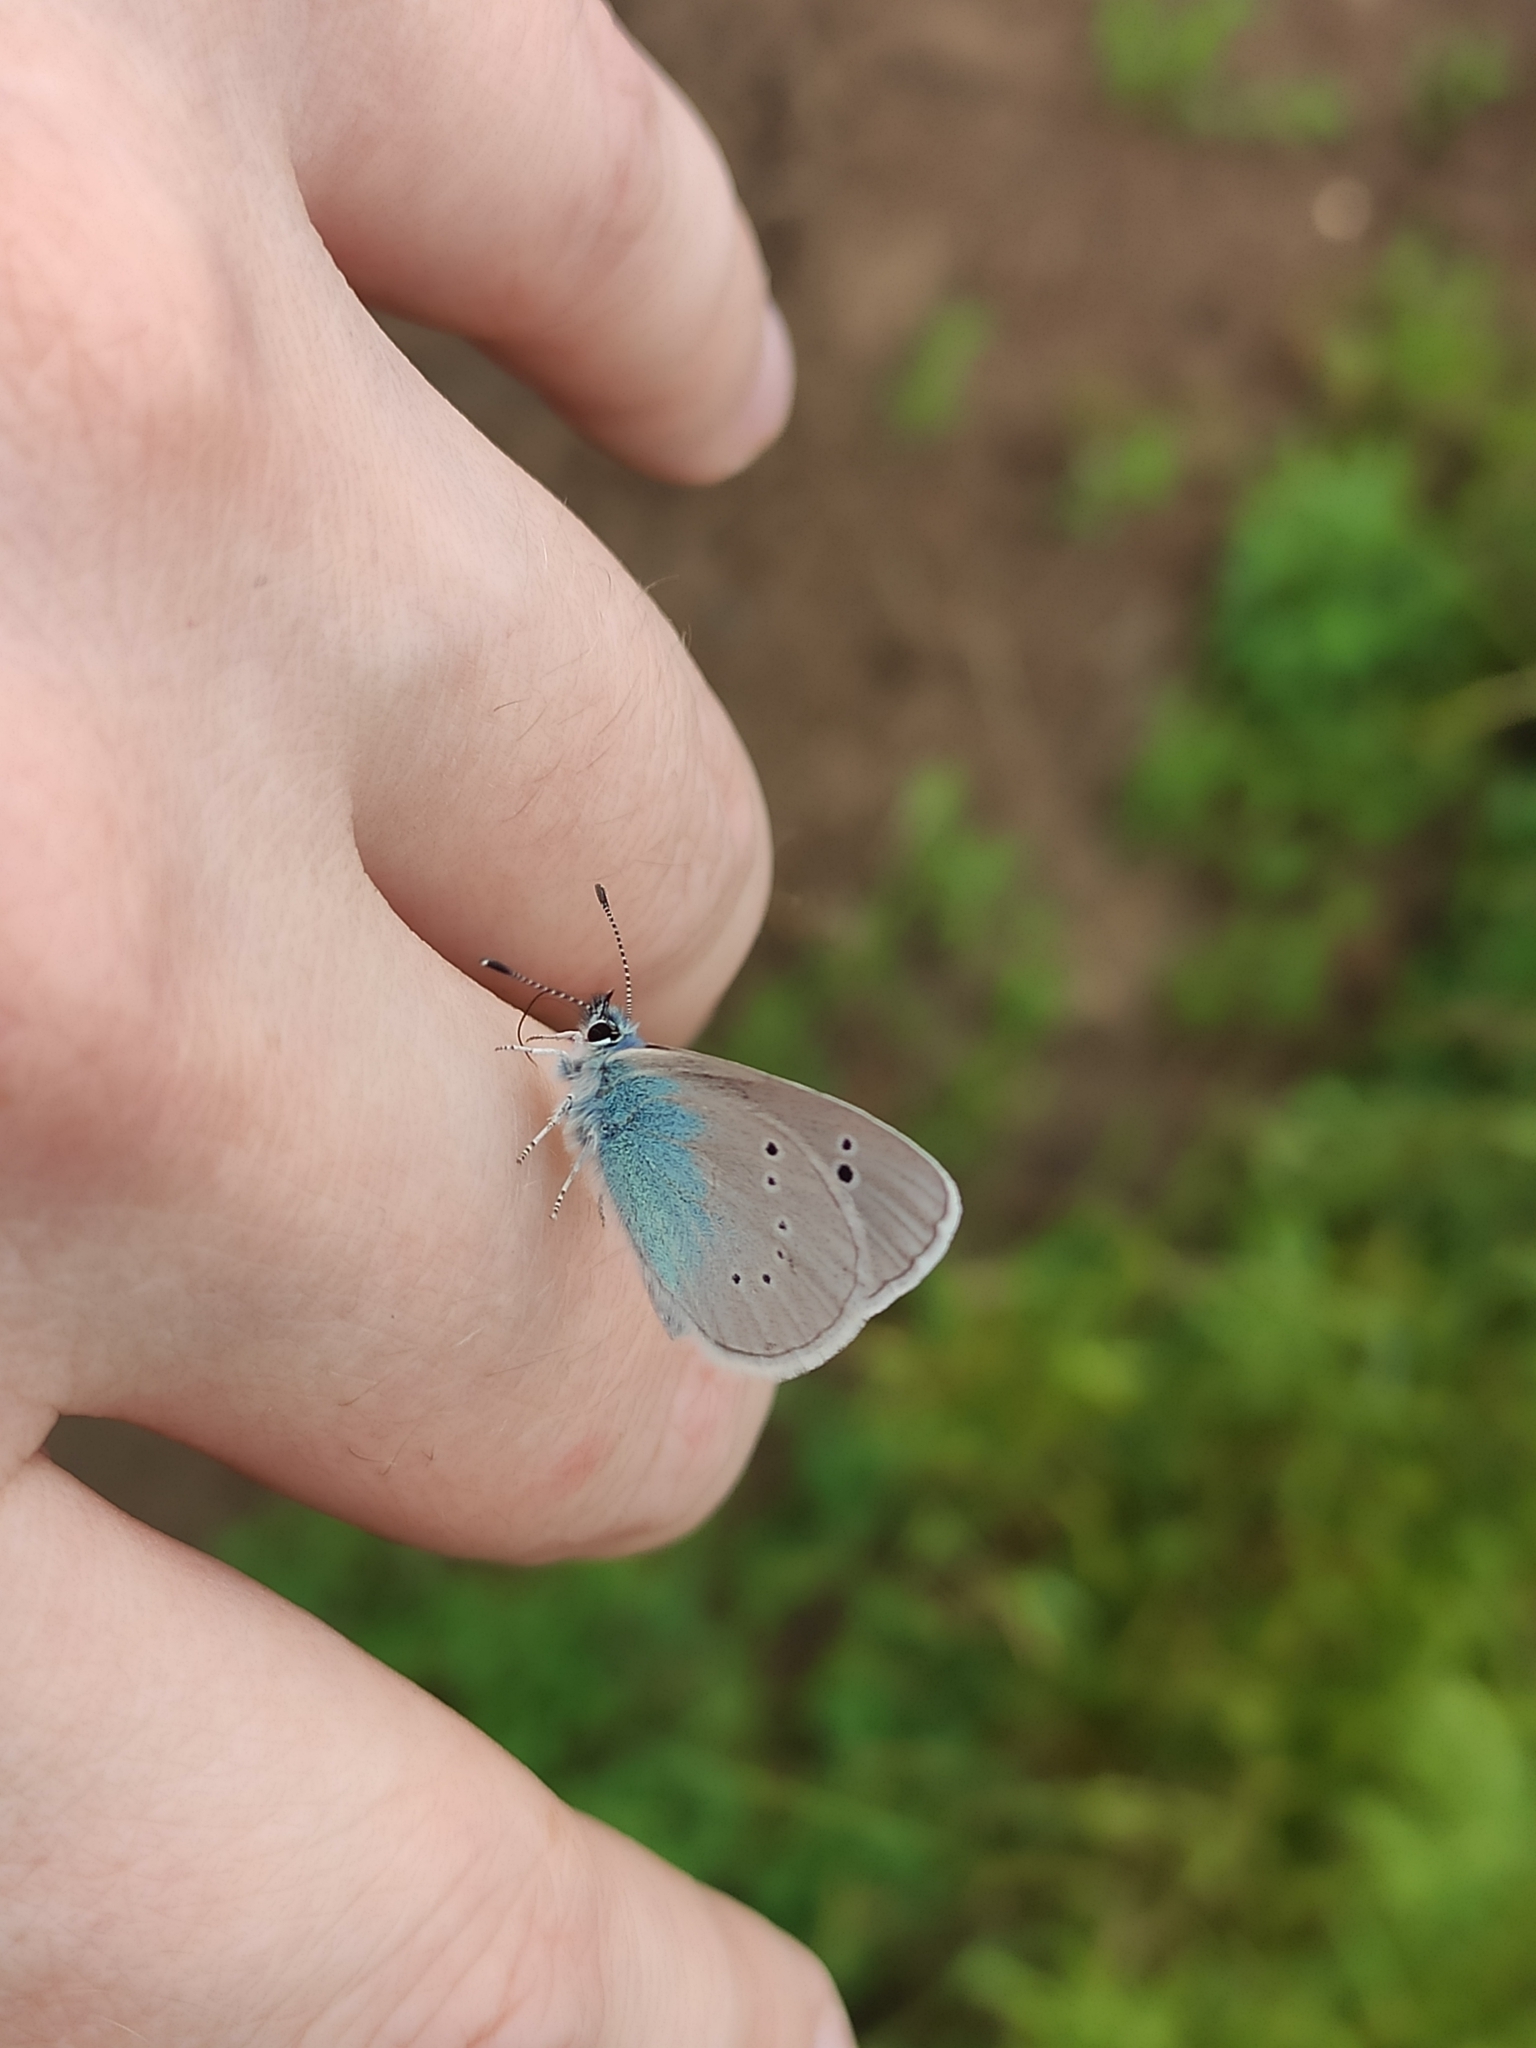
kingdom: Animalia
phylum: Arthropoda
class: Insecta
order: Lepidoptera
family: Lycaenidae
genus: Glaucopsyche
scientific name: Glaucopsyche alexis
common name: Green-underside blue
